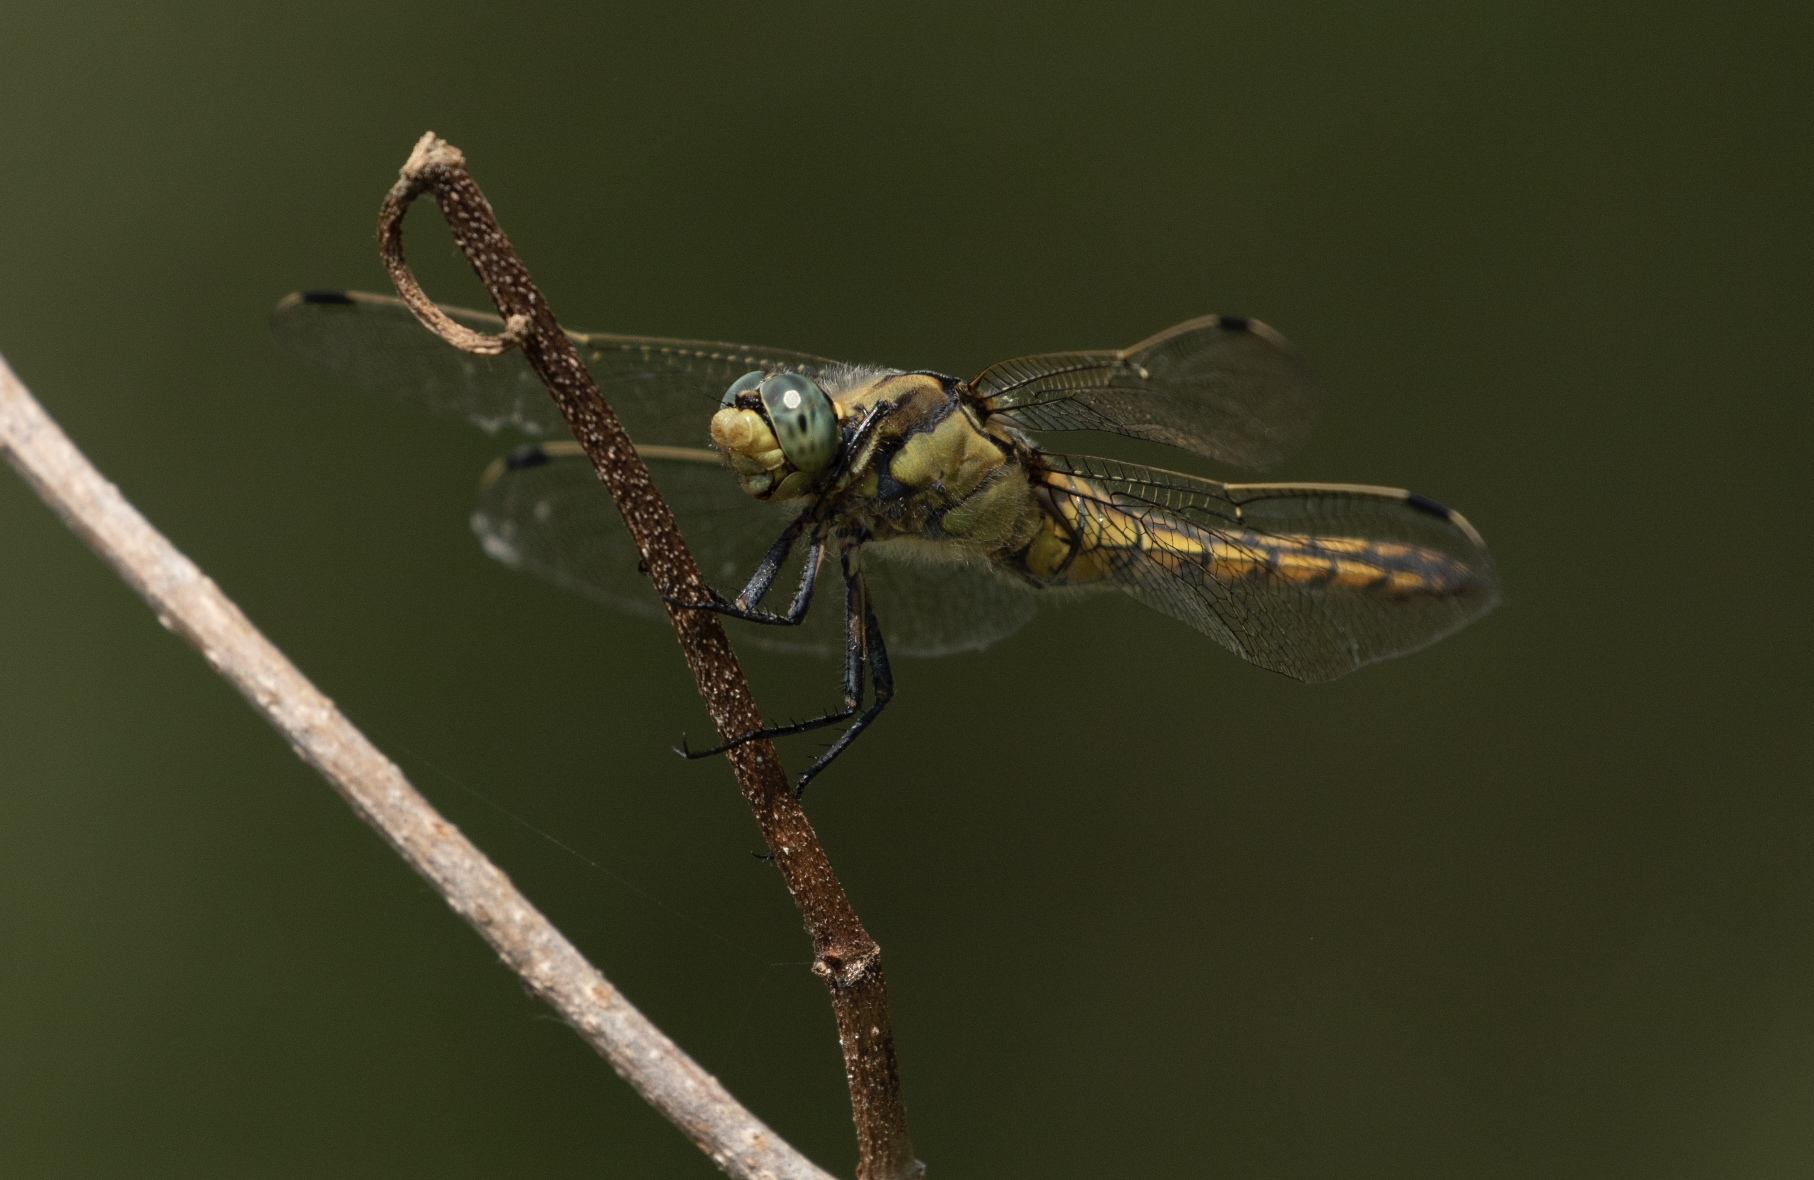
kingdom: Animalia
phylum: Arthropoda
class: Insecta
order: Odonata
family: Libellulidae
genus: Orthetrum
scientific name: Orthetrum cancellatum
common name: Black-tailed skimmer
